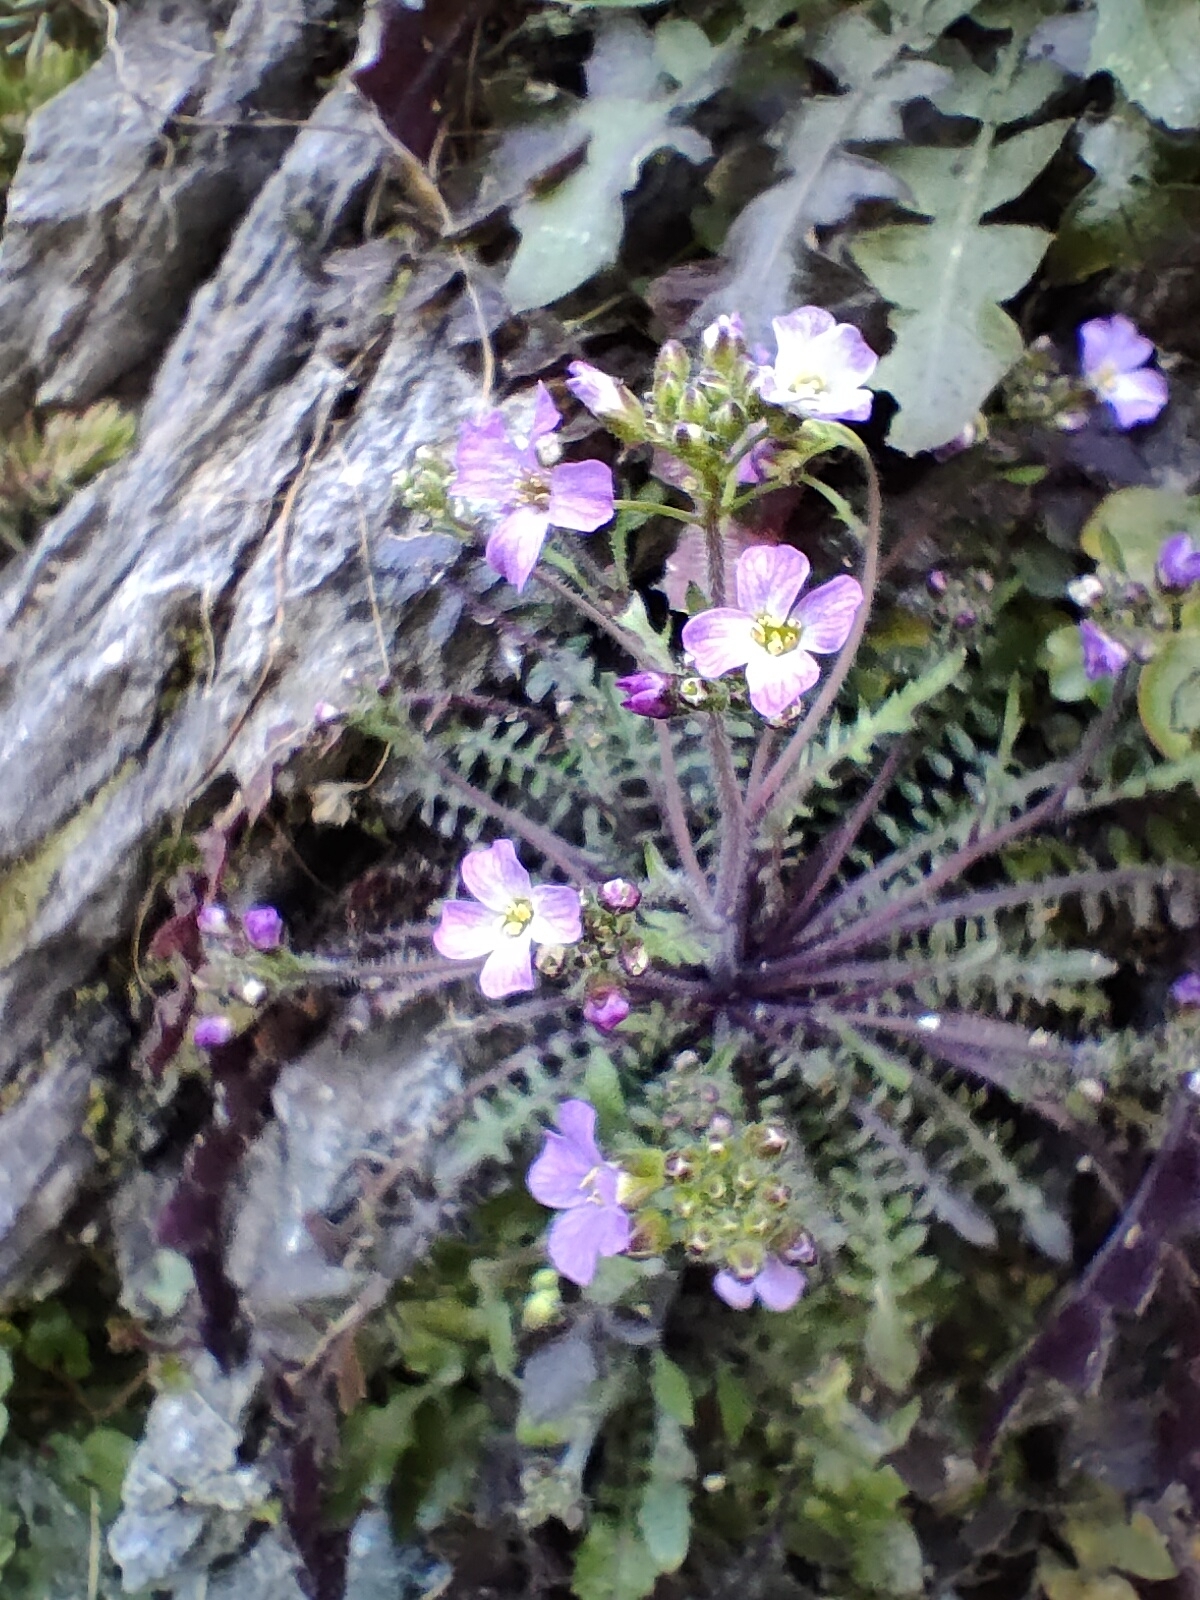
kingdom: Plantae
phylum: Tracheophyta
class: Magnoliopsida
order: Brassicales
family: Brassicaceae
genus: Arabidopsis
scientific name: Arabidopsis arenosa
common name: Sand rock-cress
